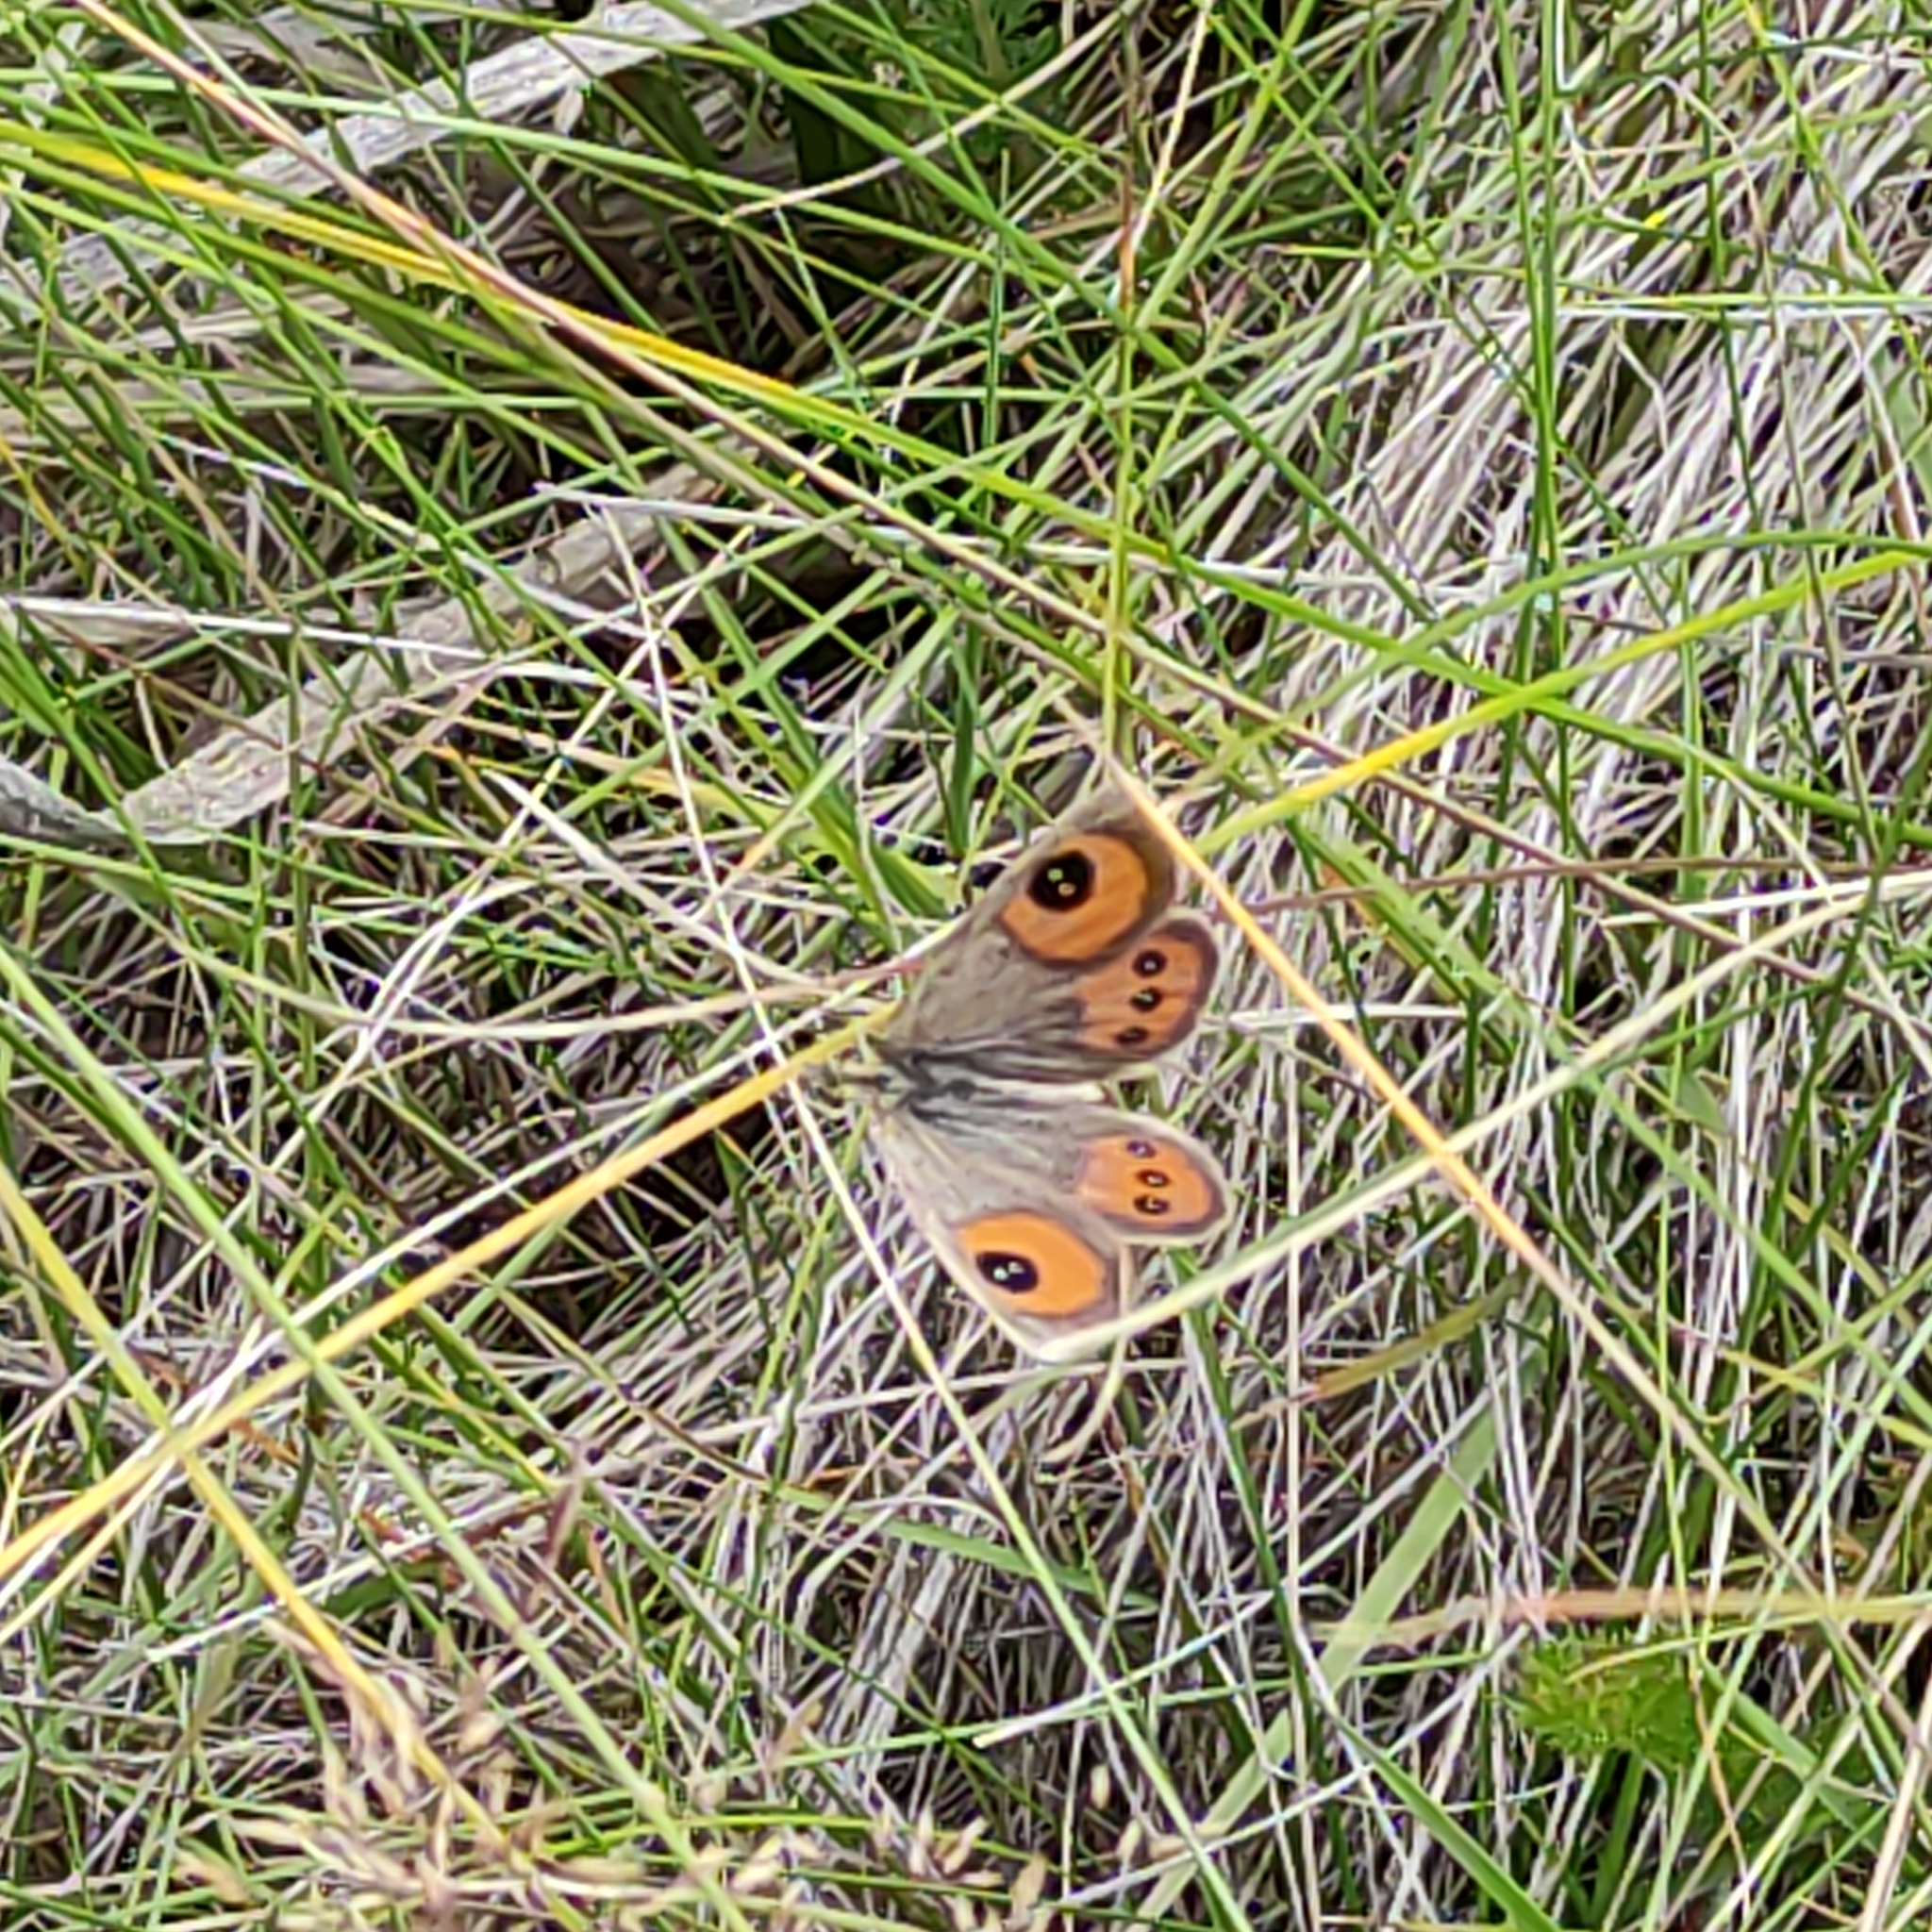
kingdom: Animalia
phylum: Arthropoda
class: Insecta
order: Lepidoptera
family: Nymphalidae
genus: Argyrophenga
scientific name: Argyrophenga antipodum
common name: Common tussock butterfly
